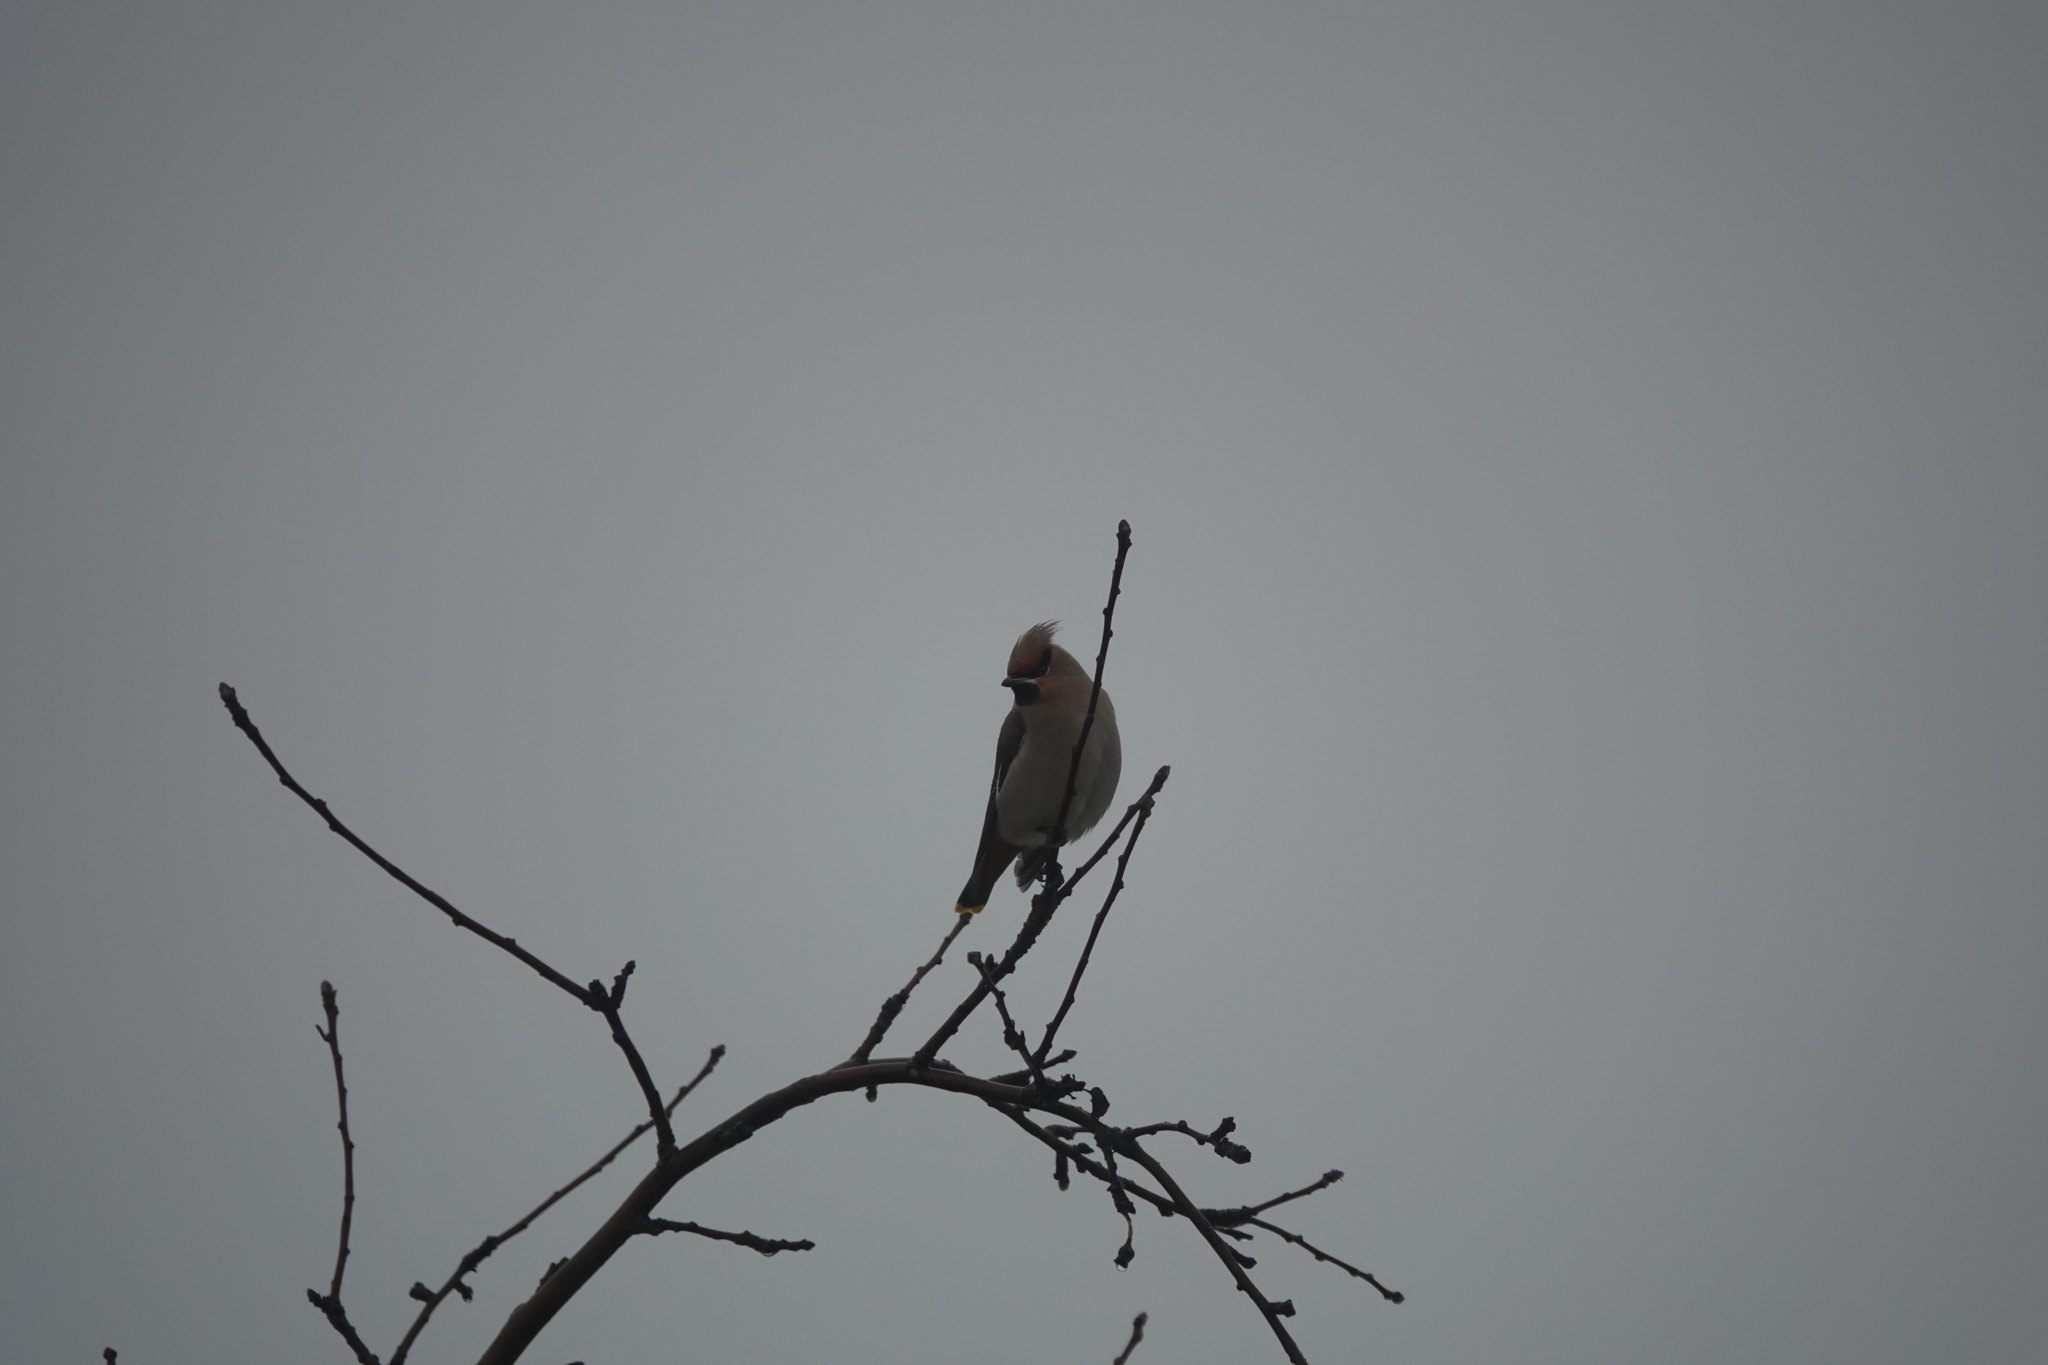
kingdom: Animalia
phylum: Chordata
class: Aves
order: Passeriformes
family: Bombycillidae
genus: Bombycilla
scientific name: Bombycilla garrulus
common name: Bohemian waxwing
